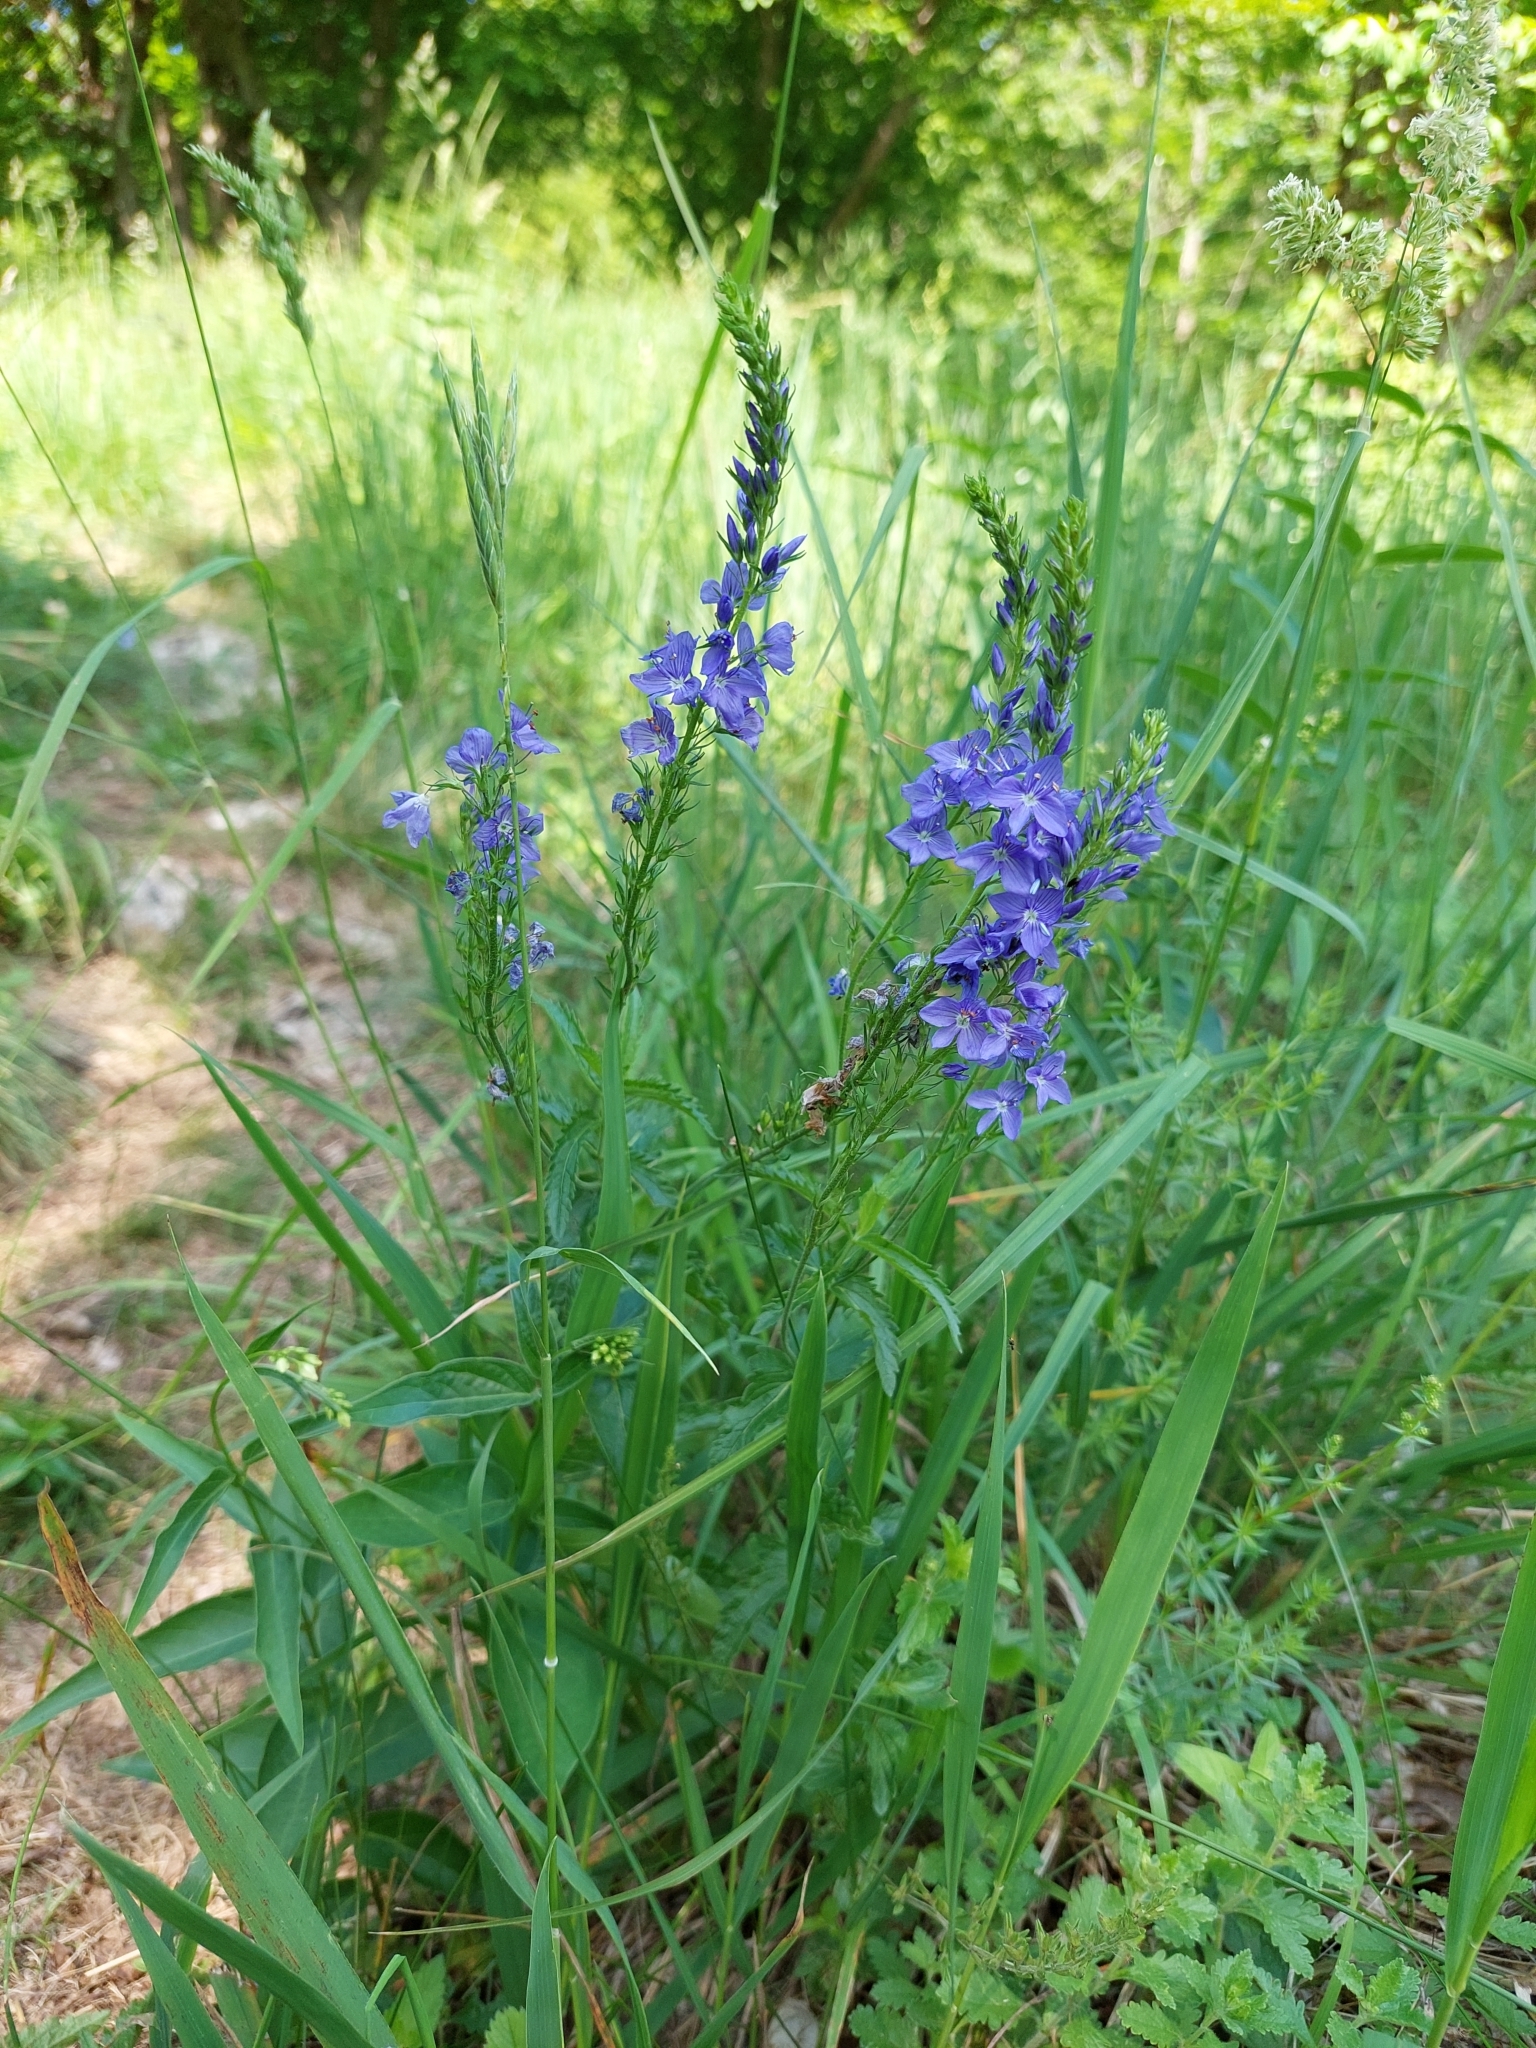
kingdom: Plantae
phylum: Tracheophyta
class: Magnoliopsida
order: Lamiales
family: Plantaginaceae
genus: Veronica
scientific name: Veronica teucrium
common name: Large speedwell
